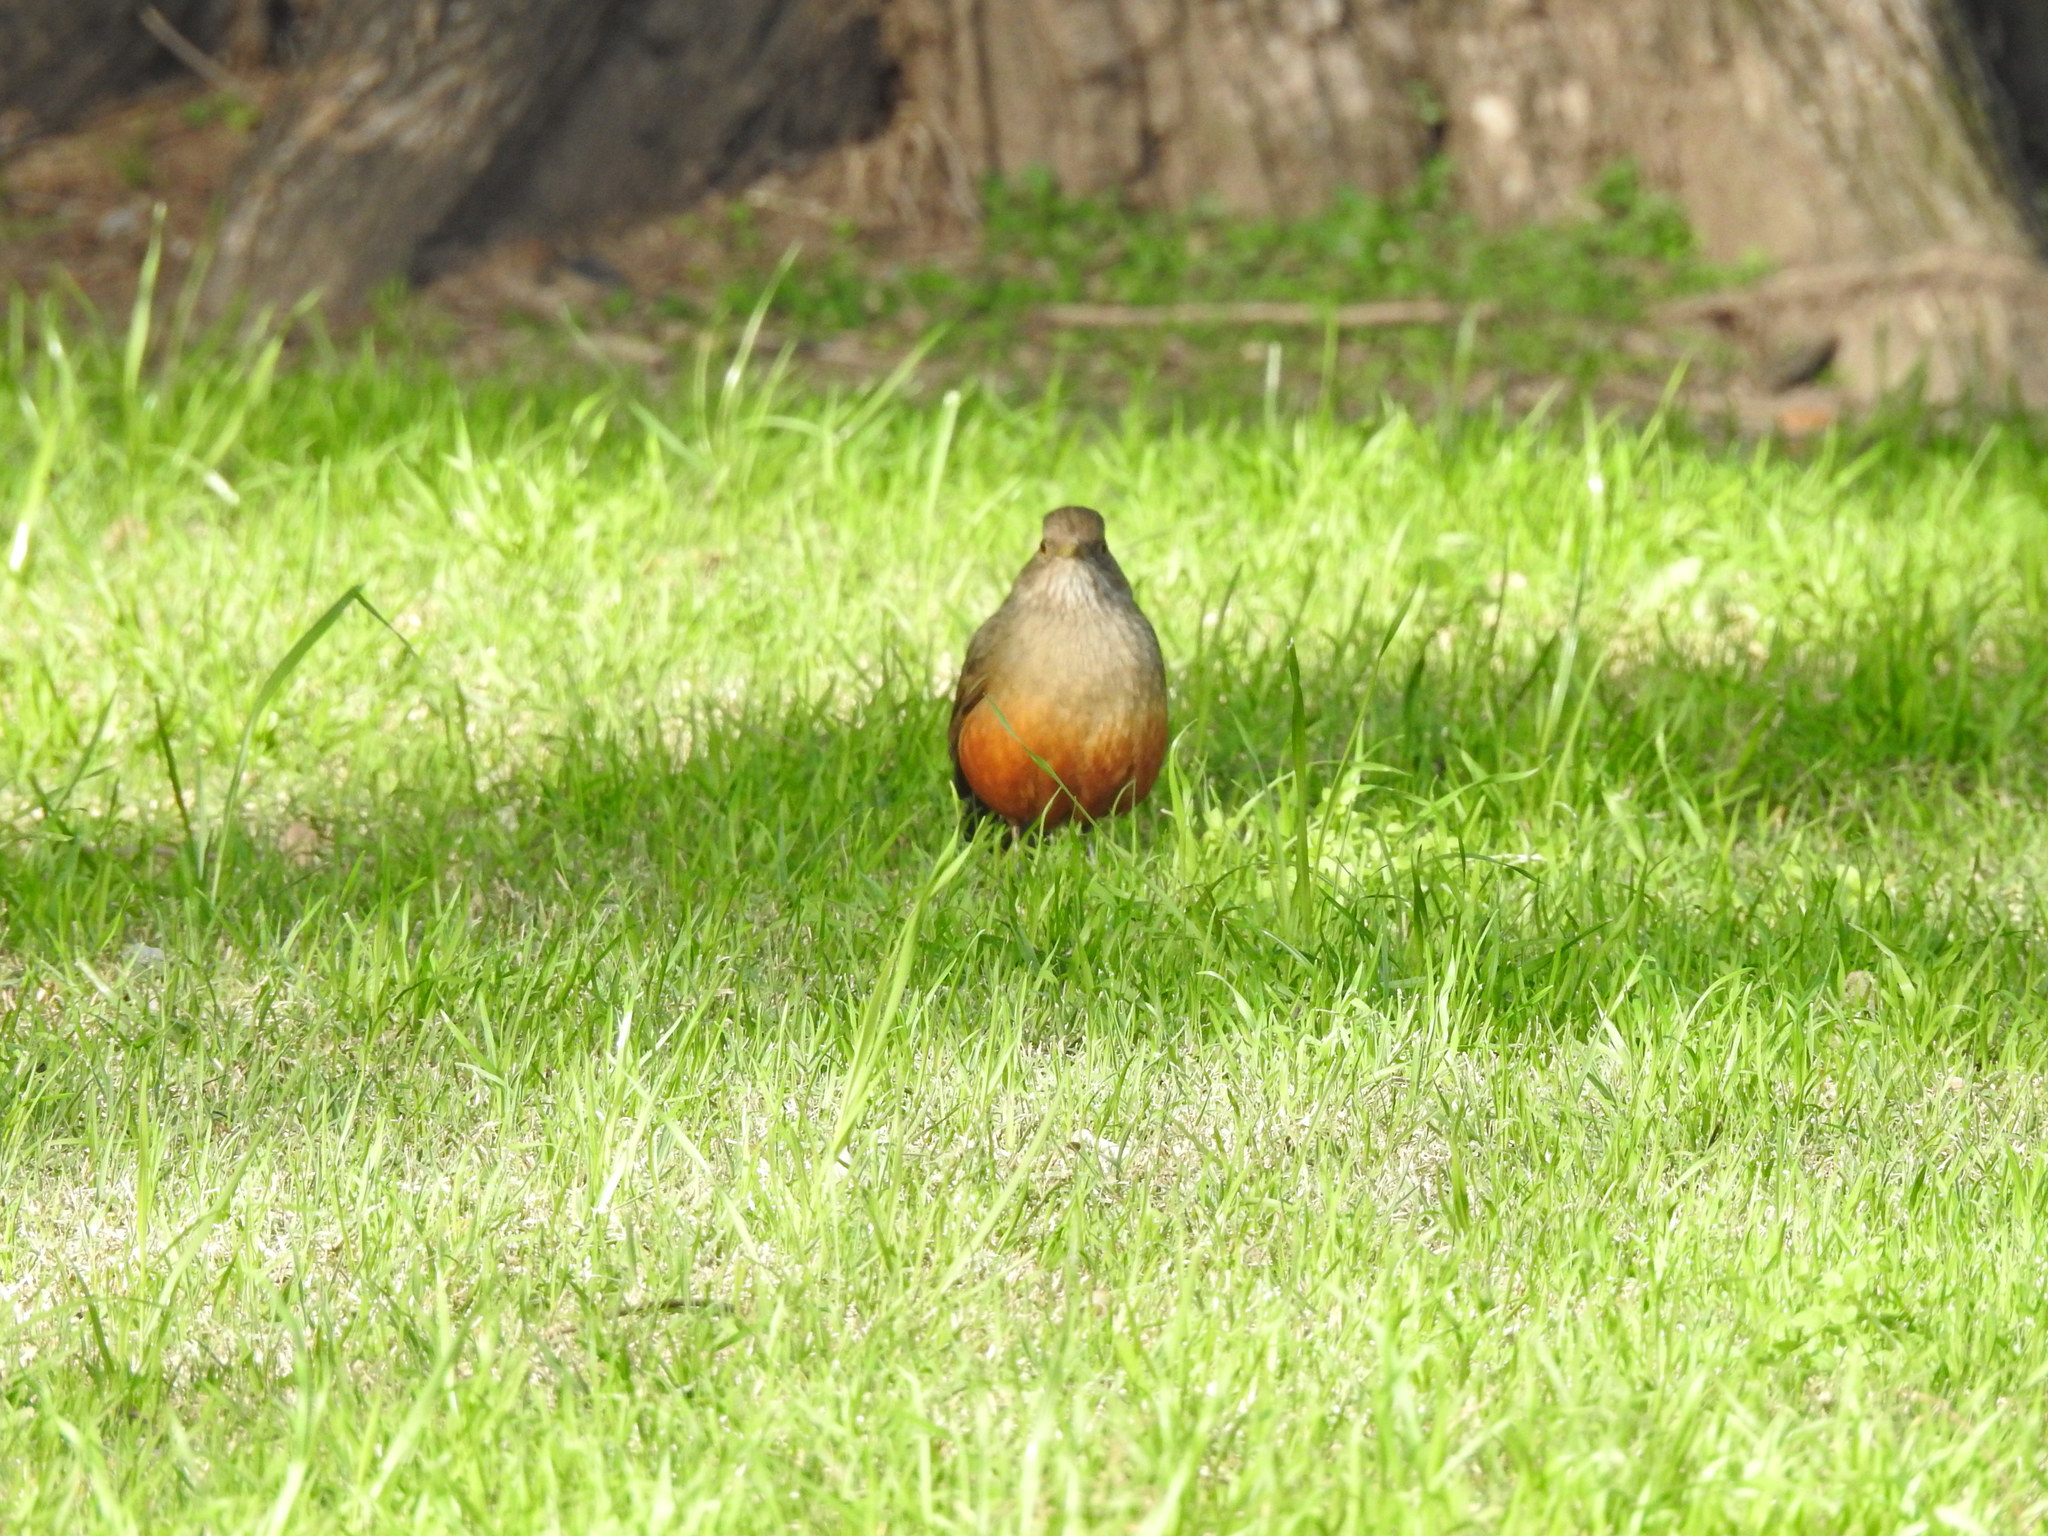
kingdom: Animalia
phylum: Chordata
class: Aves
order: Passeriformes
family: Turdidae
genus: Turdus
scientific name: Turdus rufiventris
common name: Rufous-bellied thrush
